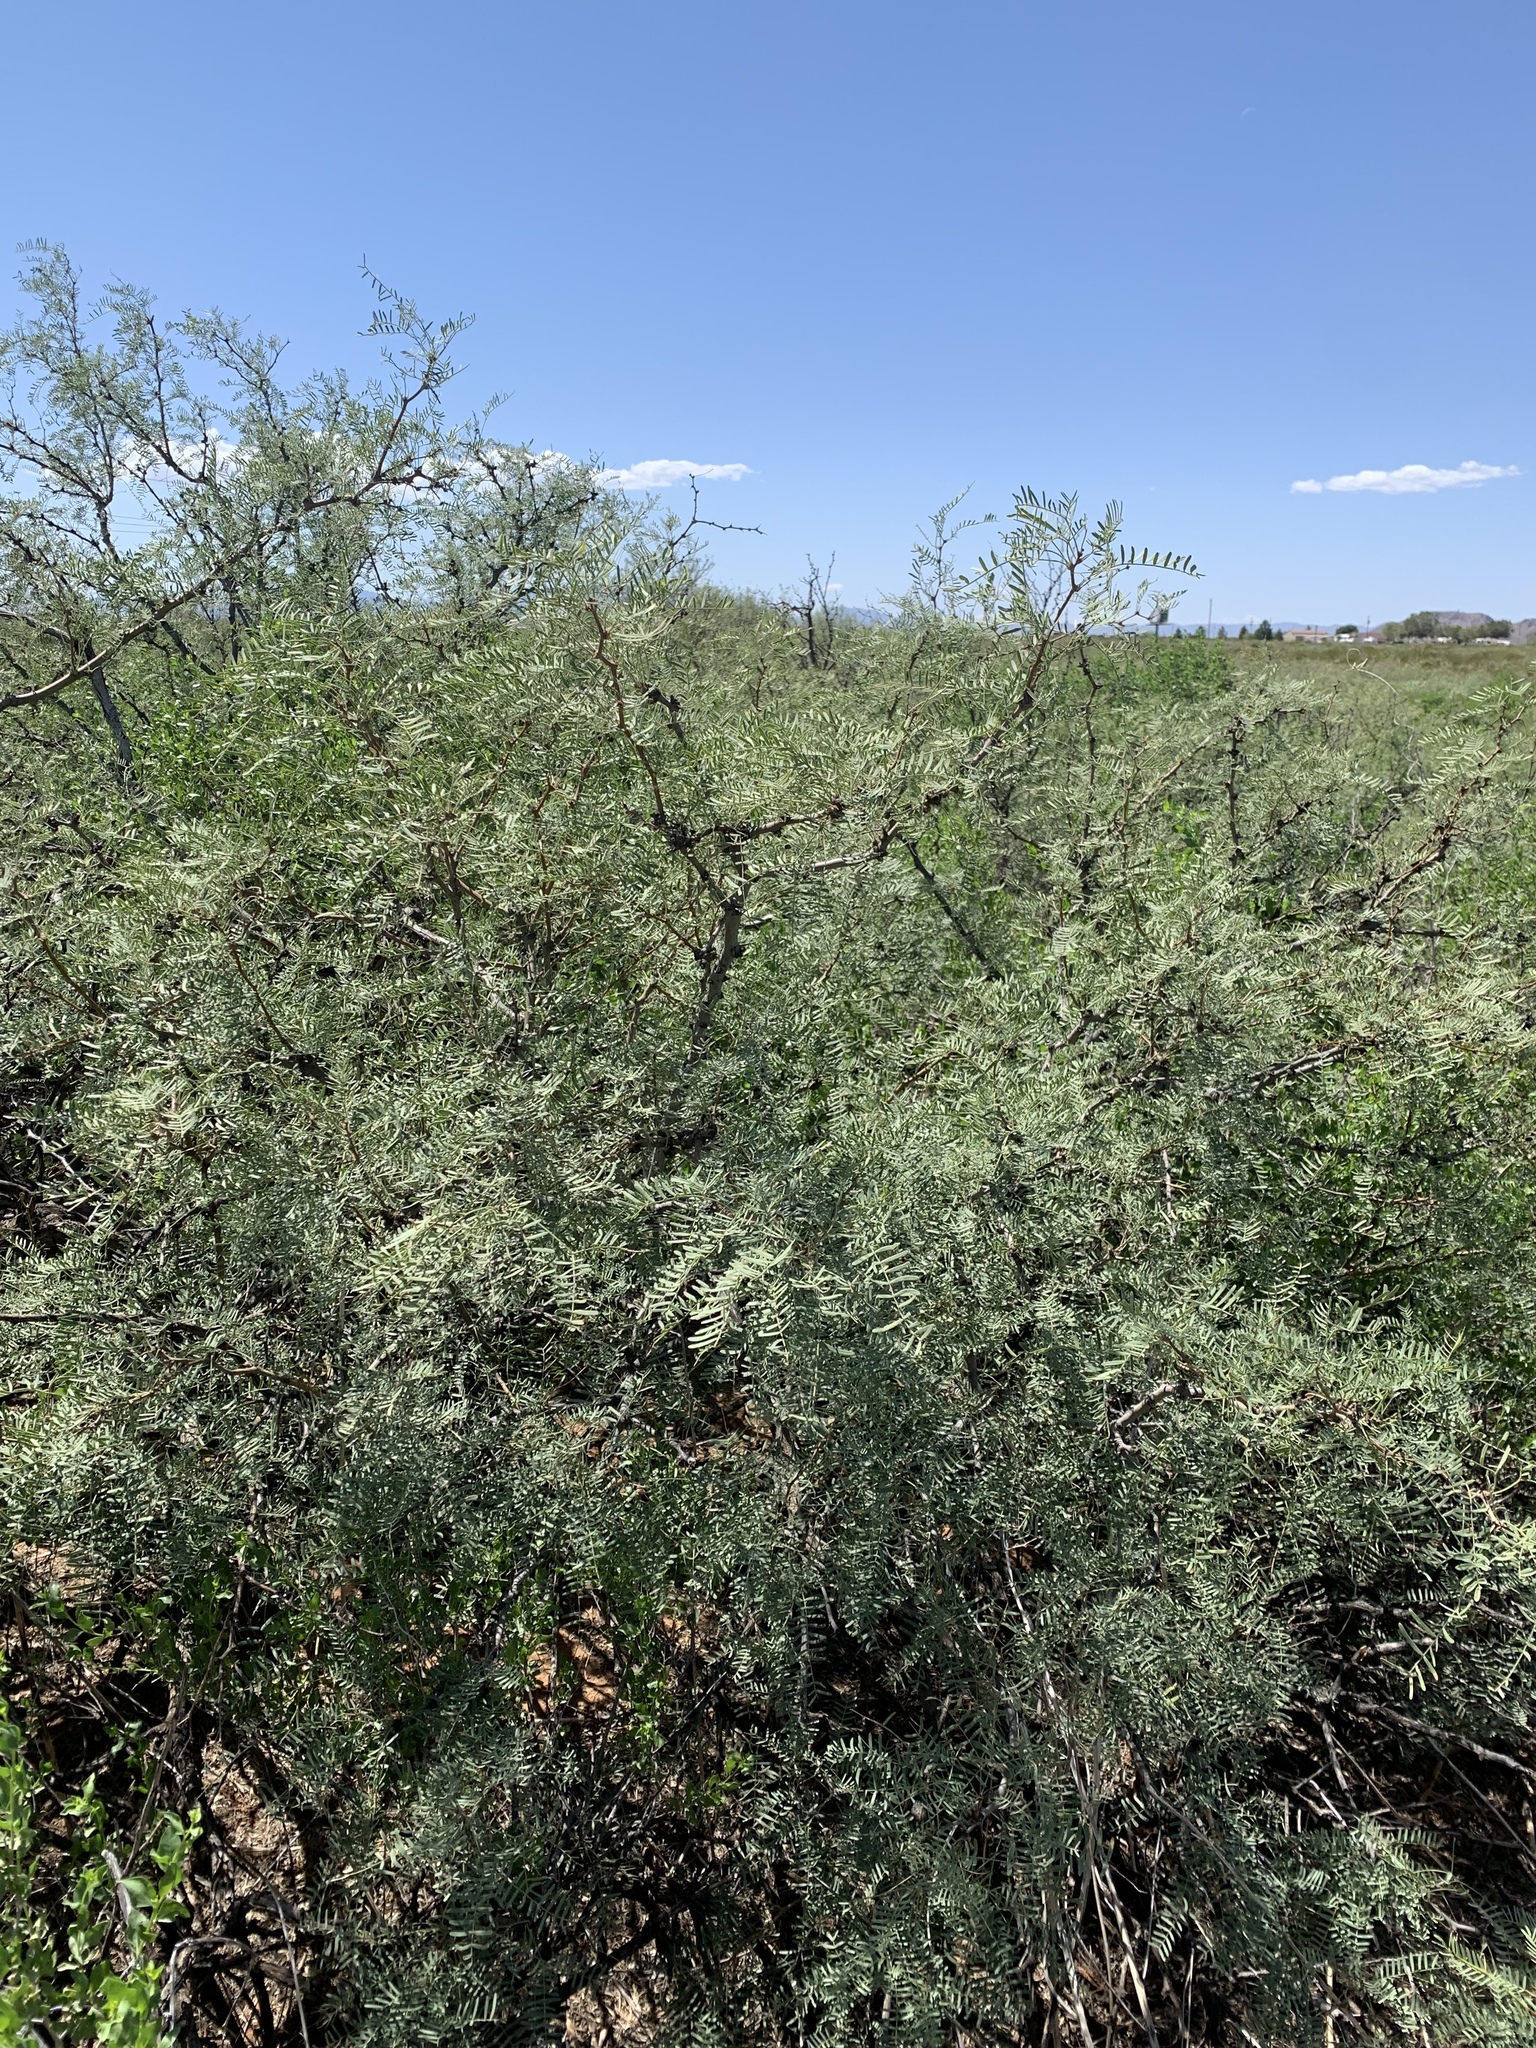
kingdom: Plantae
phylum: Tracheophyta
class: Magnoliopsida
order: Fabales
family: Fabaceae
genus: Prosopis
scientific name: Prosopis glandulosa
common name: Honey mesquite
